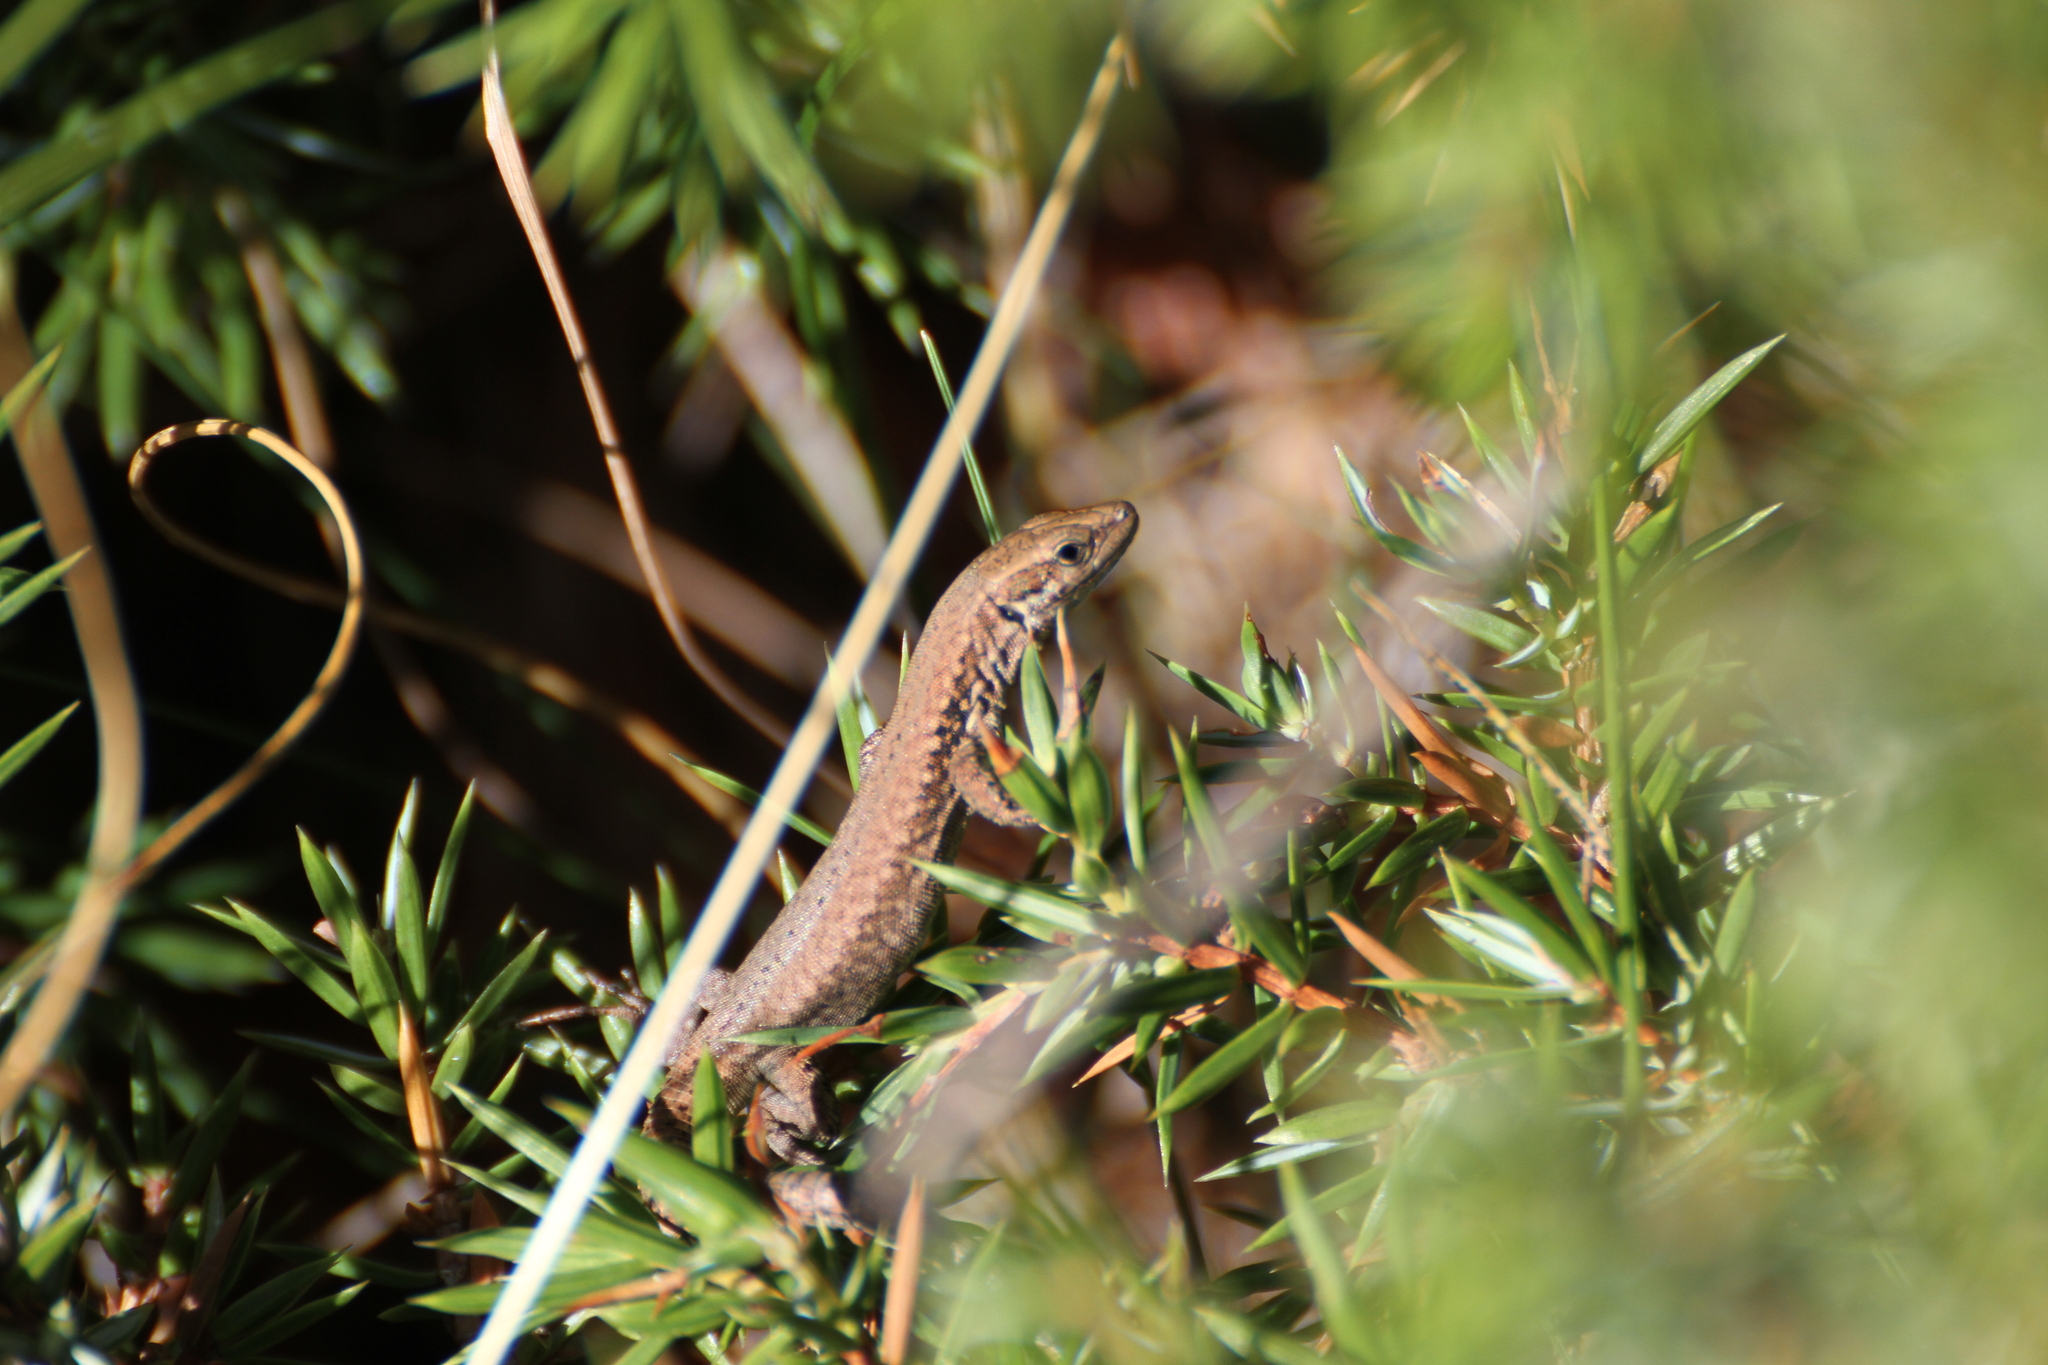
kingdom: Animalia
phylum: Chordata
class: Squamata
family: Lacertidae
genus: Podarcis
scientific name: Podarcis muralis
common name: Common wall lizard
